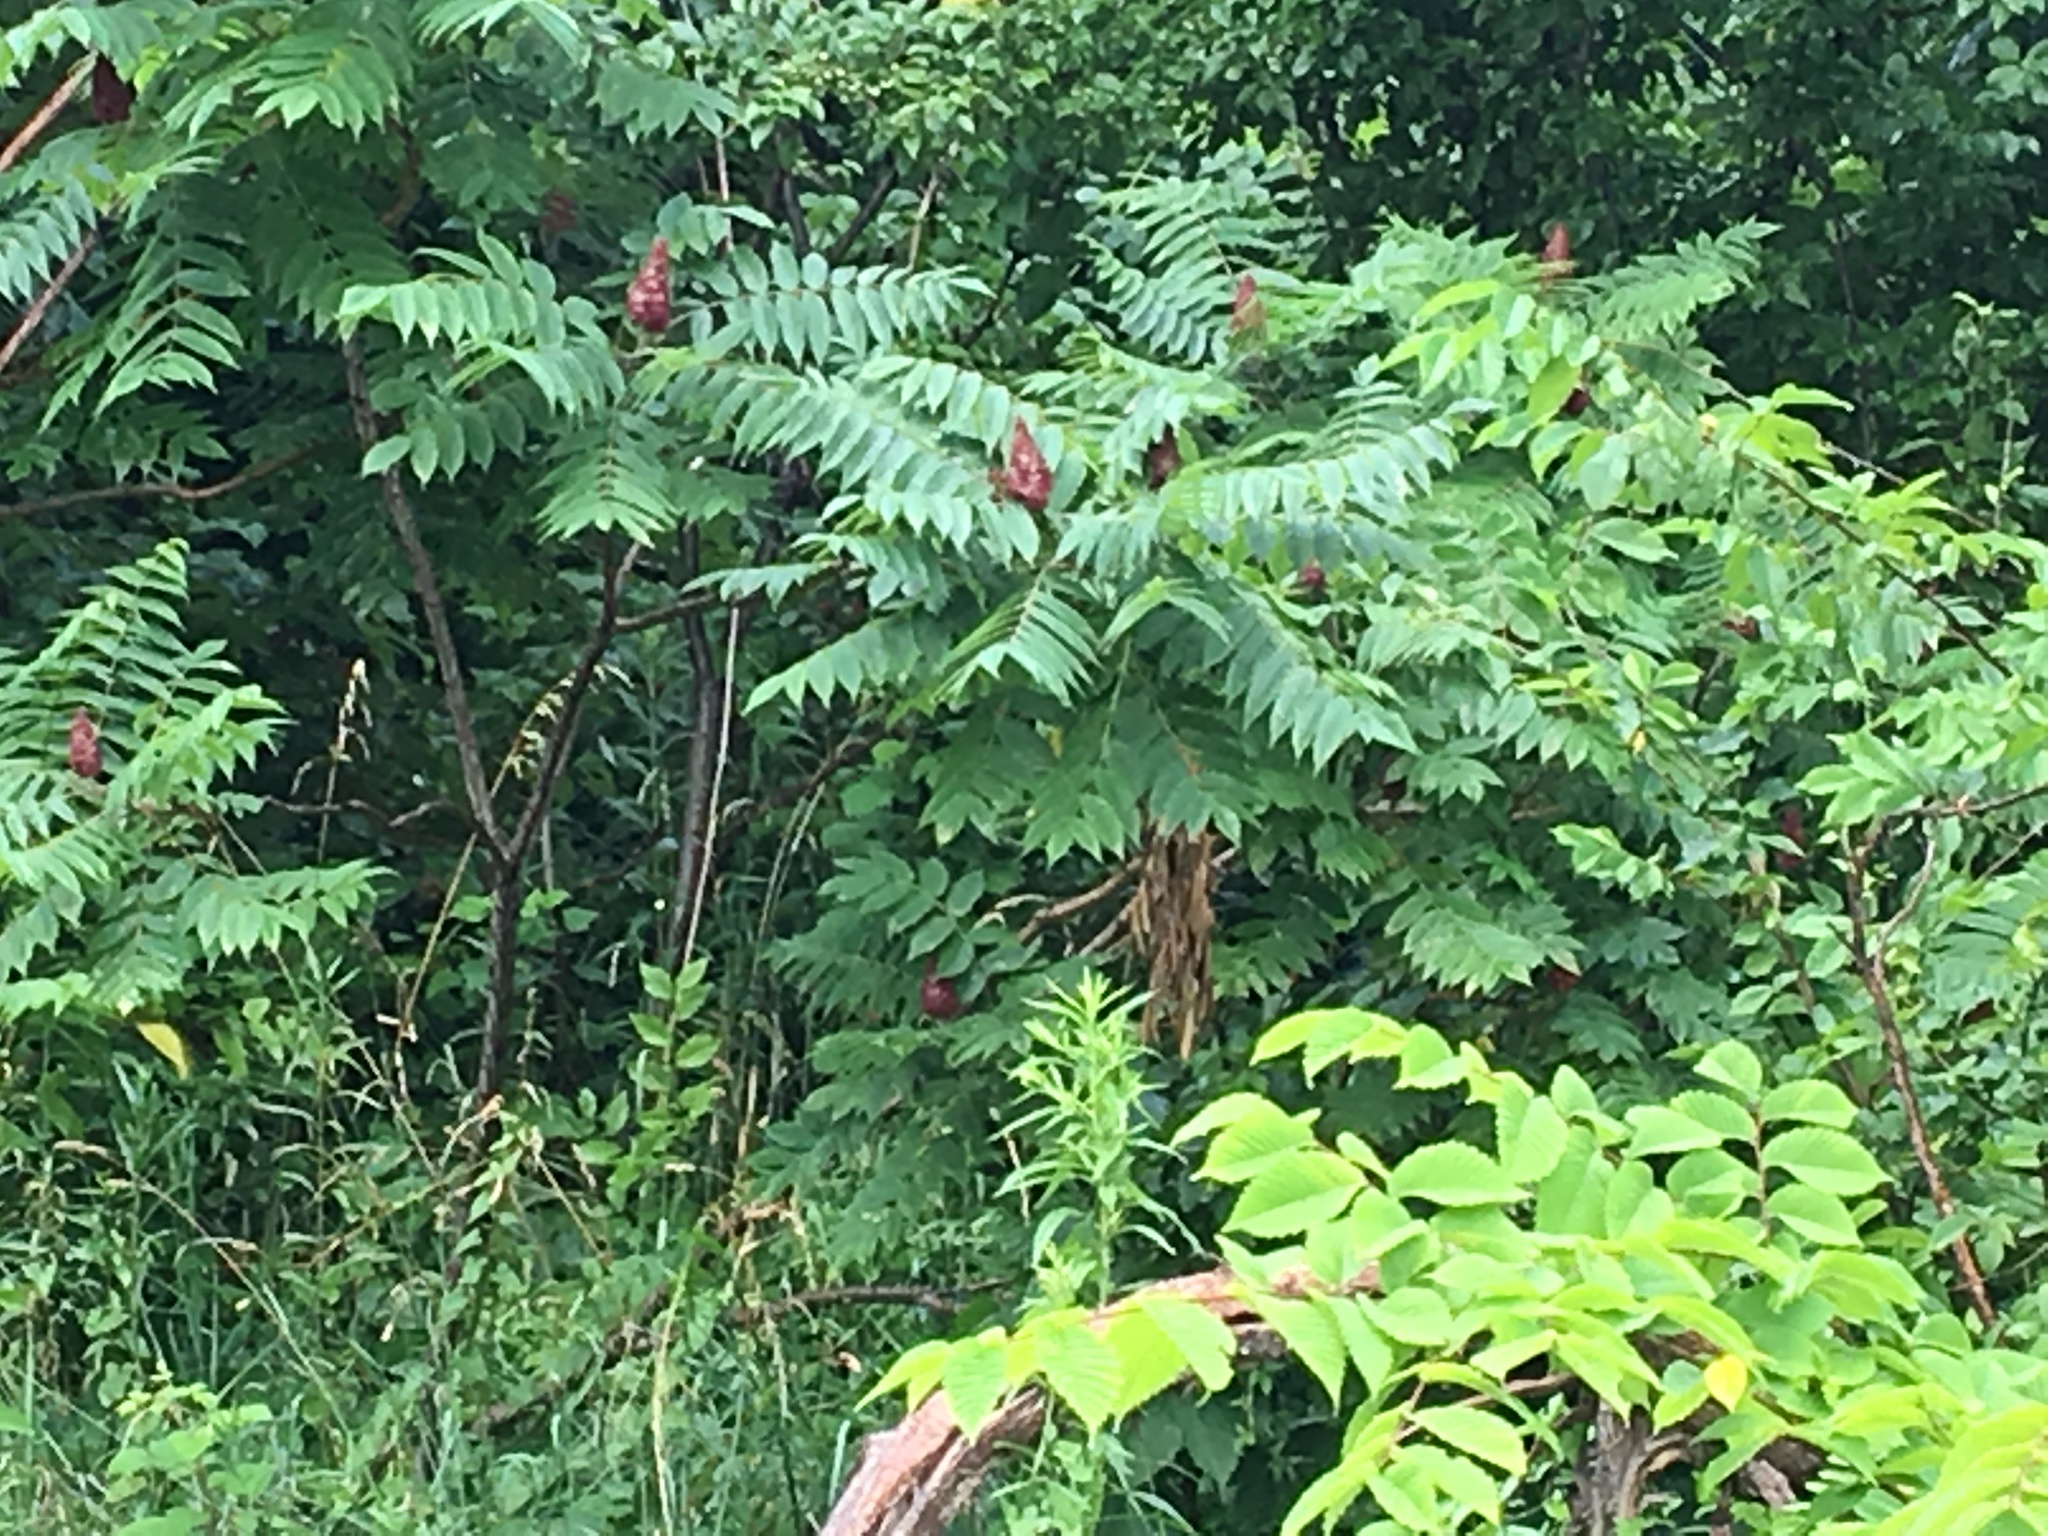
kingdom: Plantae
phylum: Tracheophyta
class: Magnoliopsida
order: Sapindales
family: Anacardiaceae
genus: Rhus
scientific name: Rhus typhina
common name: Staghorn sumac
